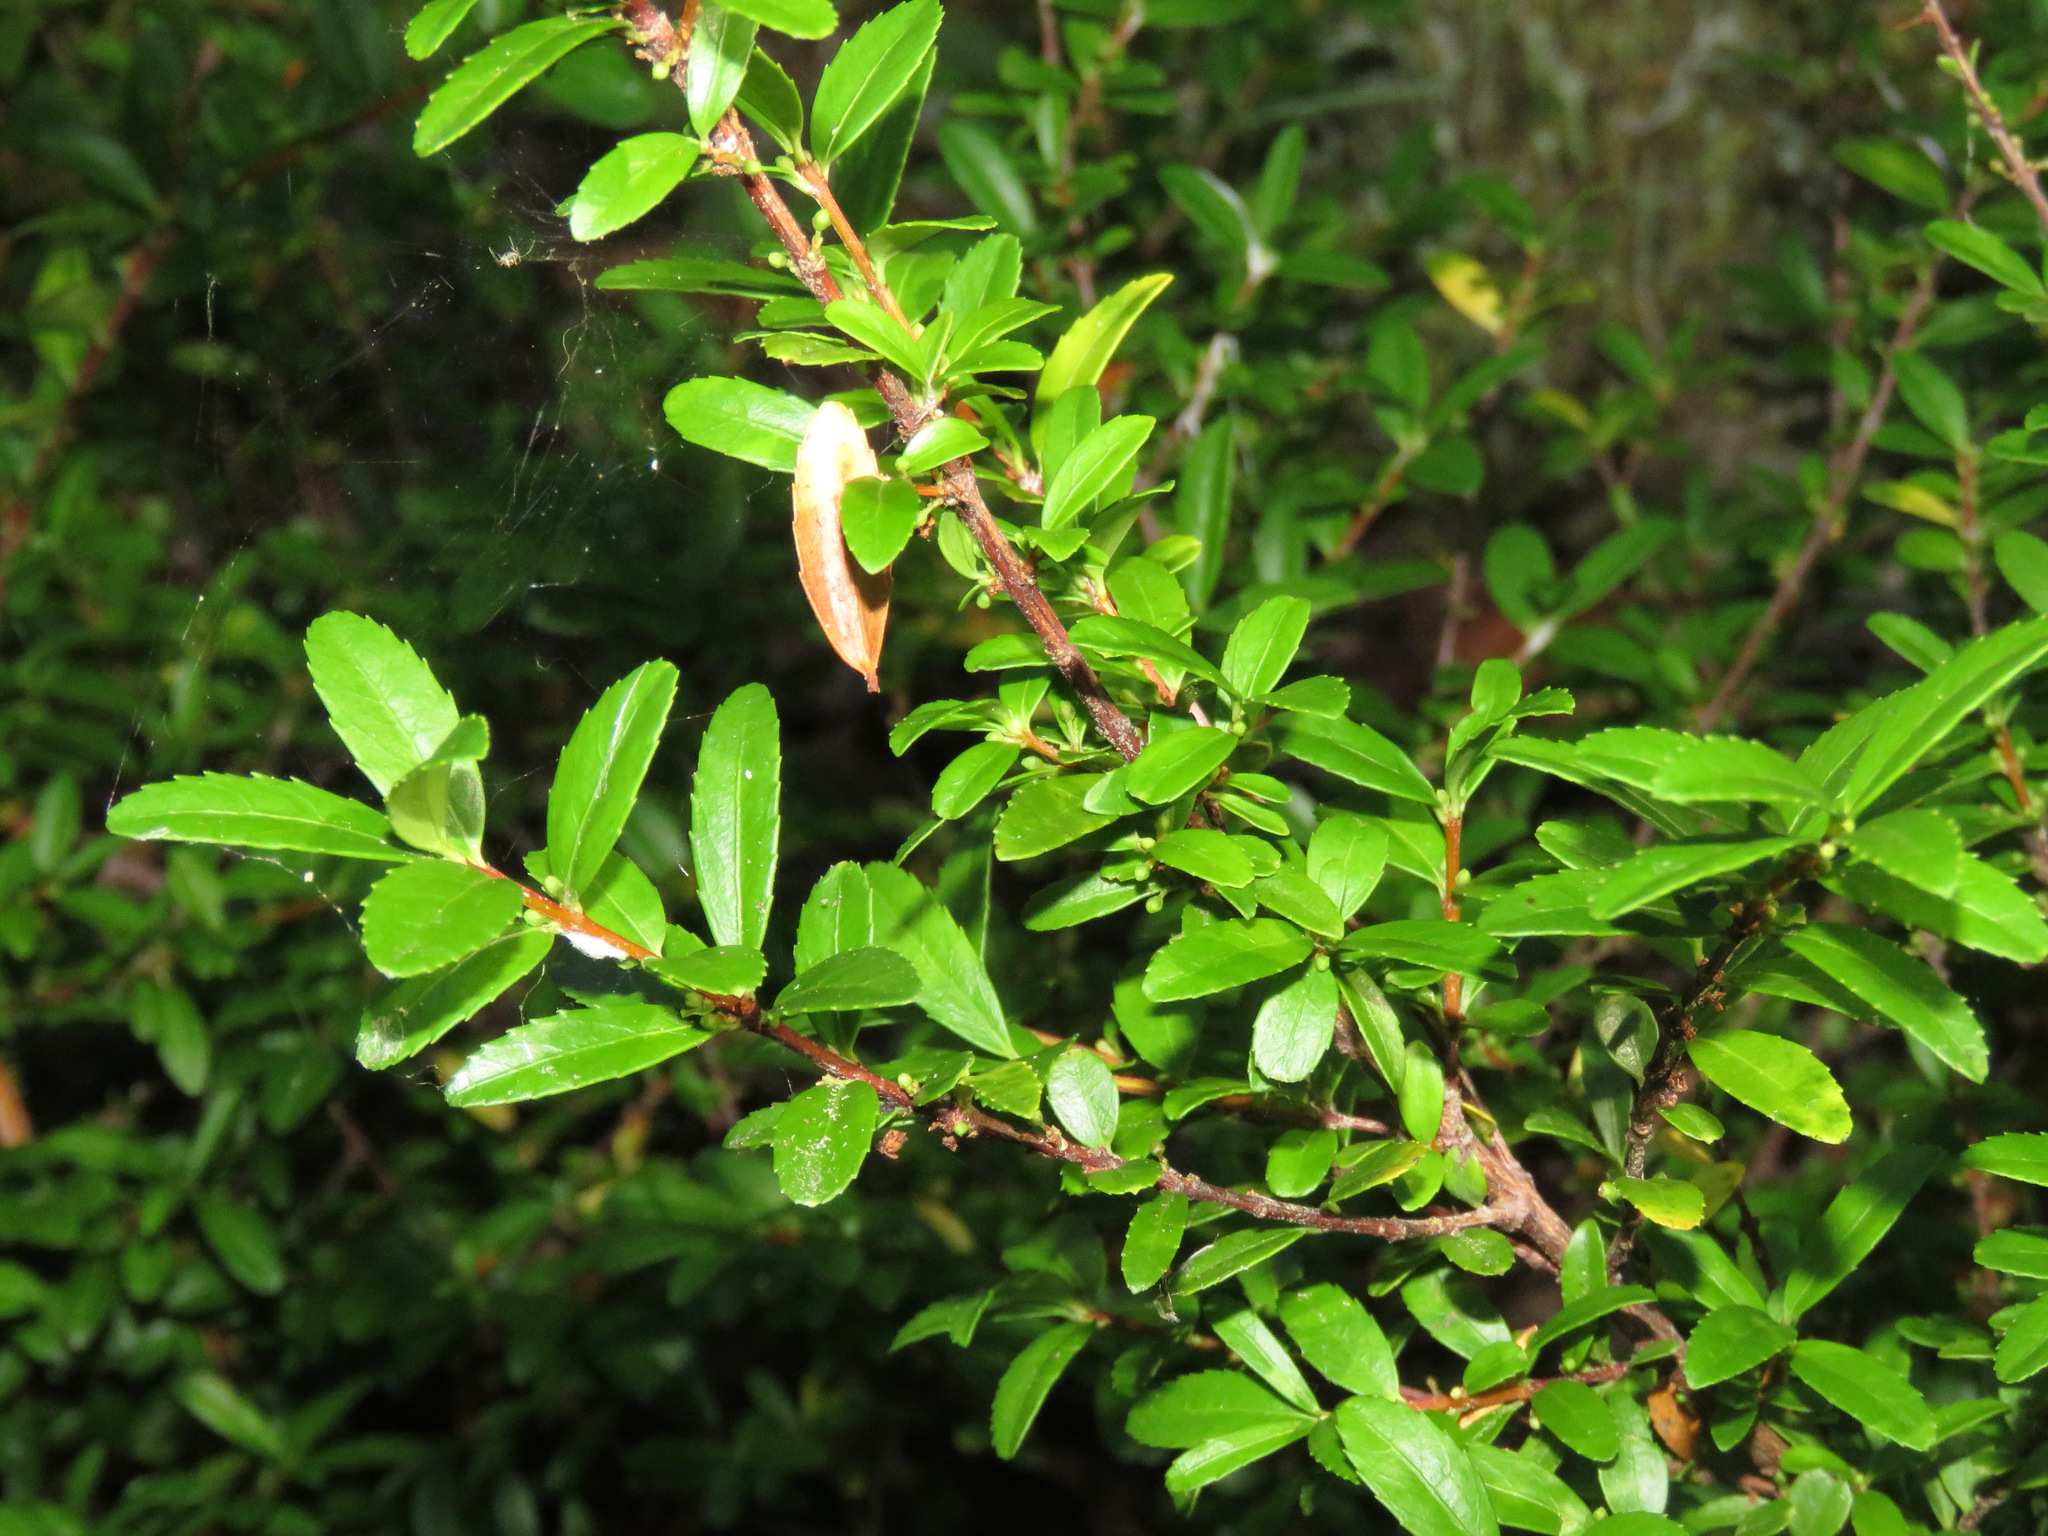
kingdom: Plantae
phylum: Tracheophyta
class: Magnoliopsida
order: Celastrales
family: Celastraceae
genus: Paxistima
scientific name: Paxistima myrsinites
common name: Mountain-lover
